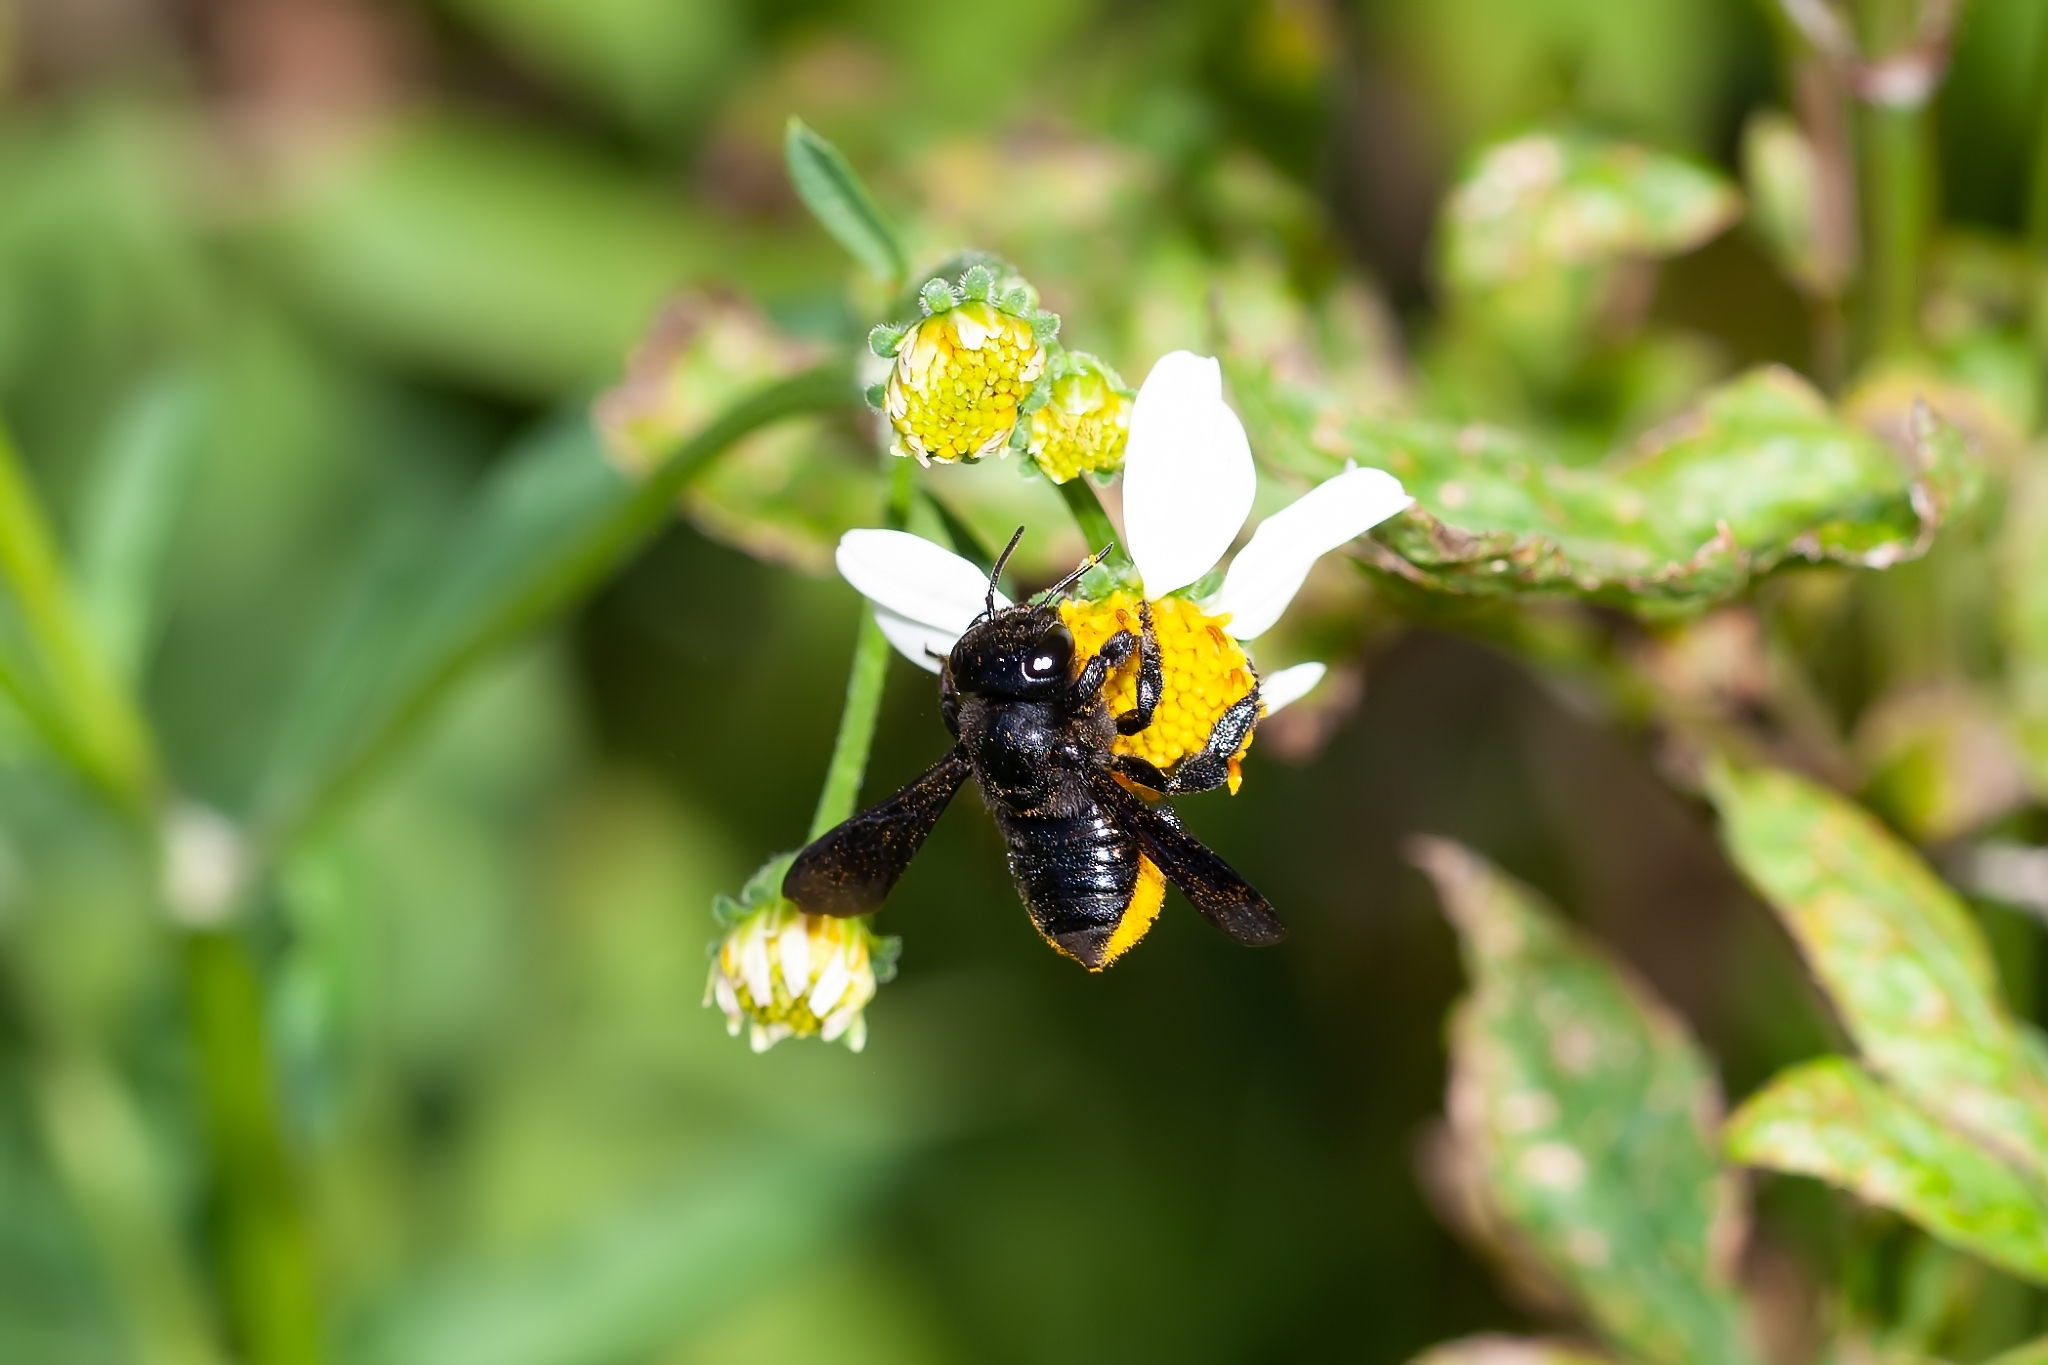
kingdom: Animalia
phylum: Arthropoda
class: Insecta
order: Hymenoptera
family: Megachilidae
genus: Megachile
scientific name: Megachile xylocopoides
